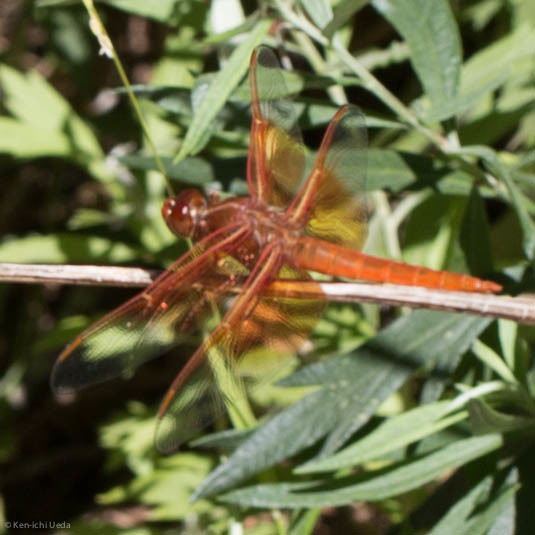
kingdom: Animalia
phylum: Arthropoda
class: Insecta
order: Odonata
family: Libellulidae
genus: Libellula
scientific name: Libellula saturata
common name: Flame skimmer
